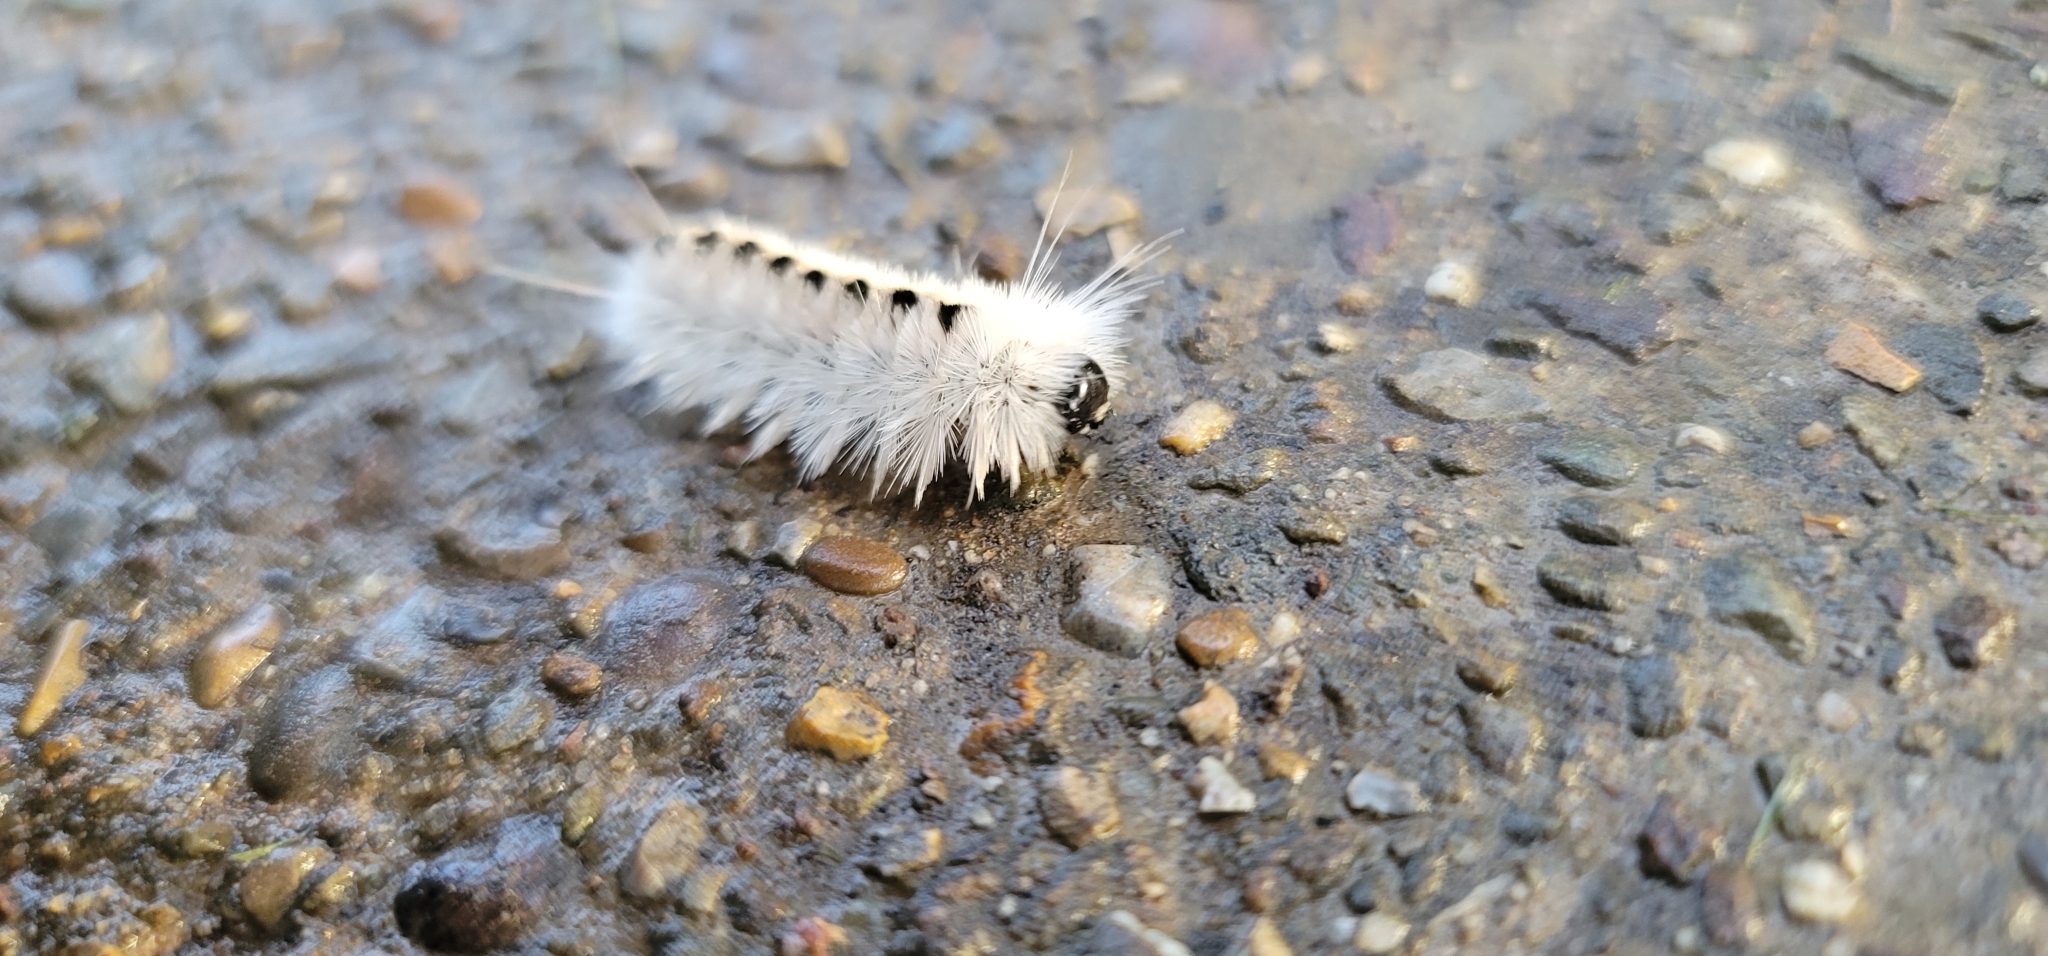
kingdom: Animalia
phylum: Arthropoda
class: Insecta
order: Lepidoptera
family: Erebidae
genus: Lophocampa
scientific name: Lophocampa caryae
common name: Hickory tussock moth
